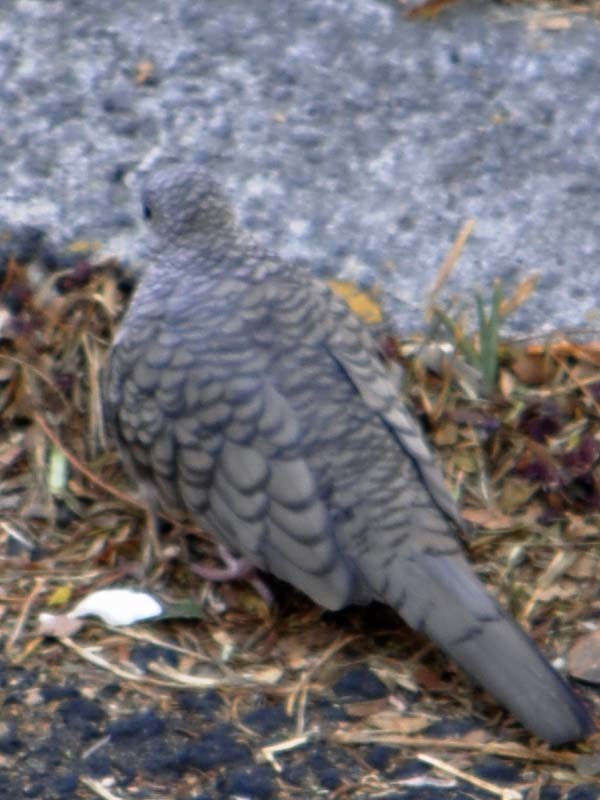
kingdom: Animalia
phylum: Chordata
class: Aves
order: Columbiformes
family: Columbidae
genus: Columbina
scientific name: Columbina inca
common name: Inca dove
